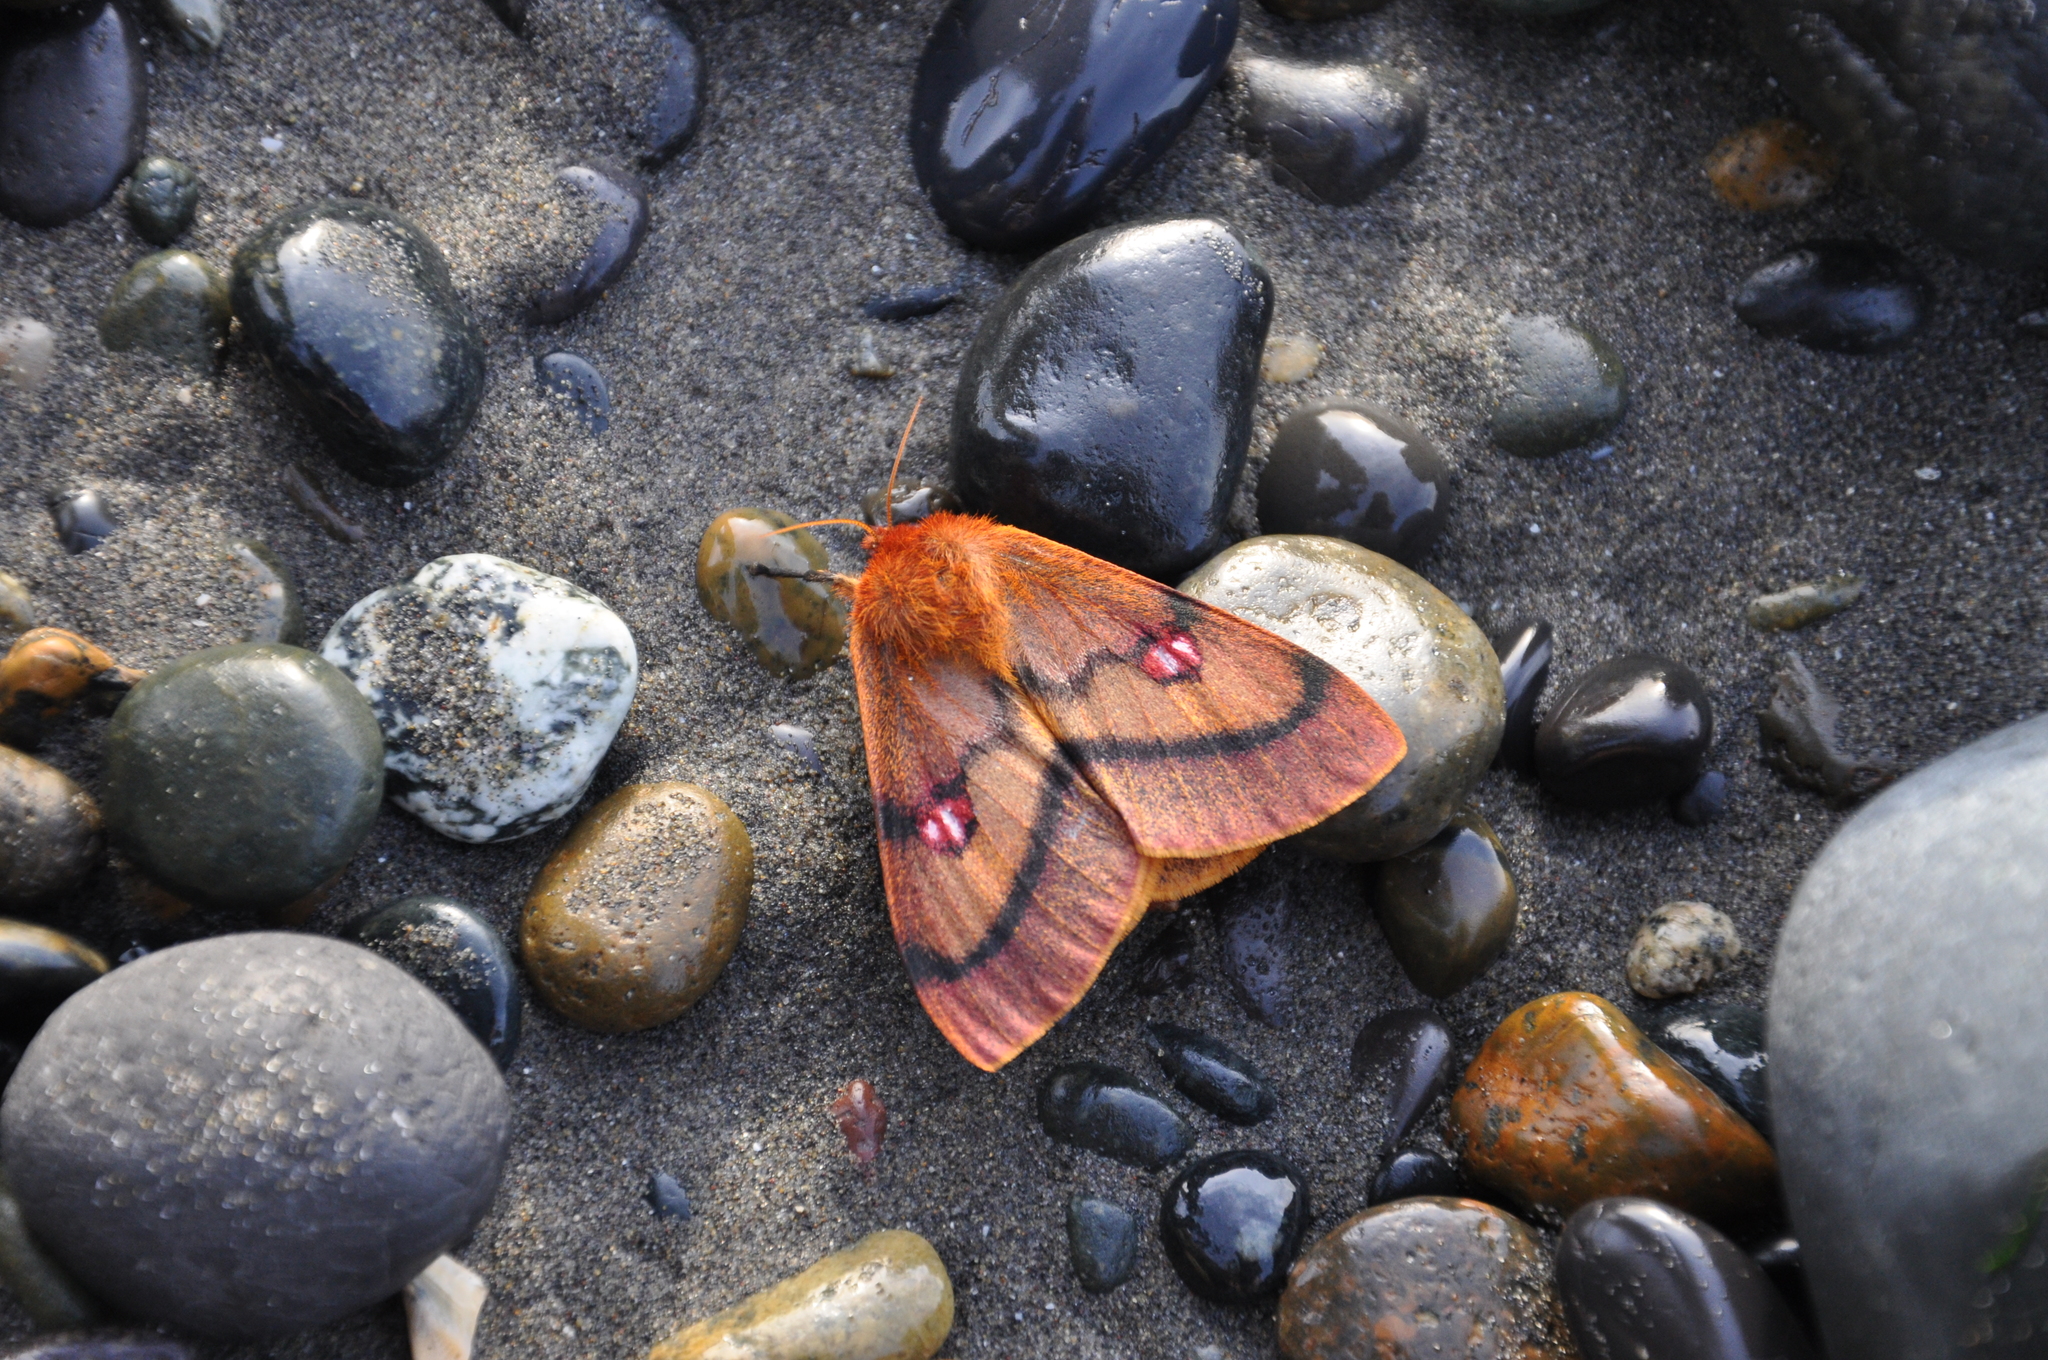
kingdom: Animalia
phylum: Arthropoda
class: Insecta
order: Lepidoptera
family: Saturniidae
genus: Adetomeris
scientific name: Adetomeris erythrops
